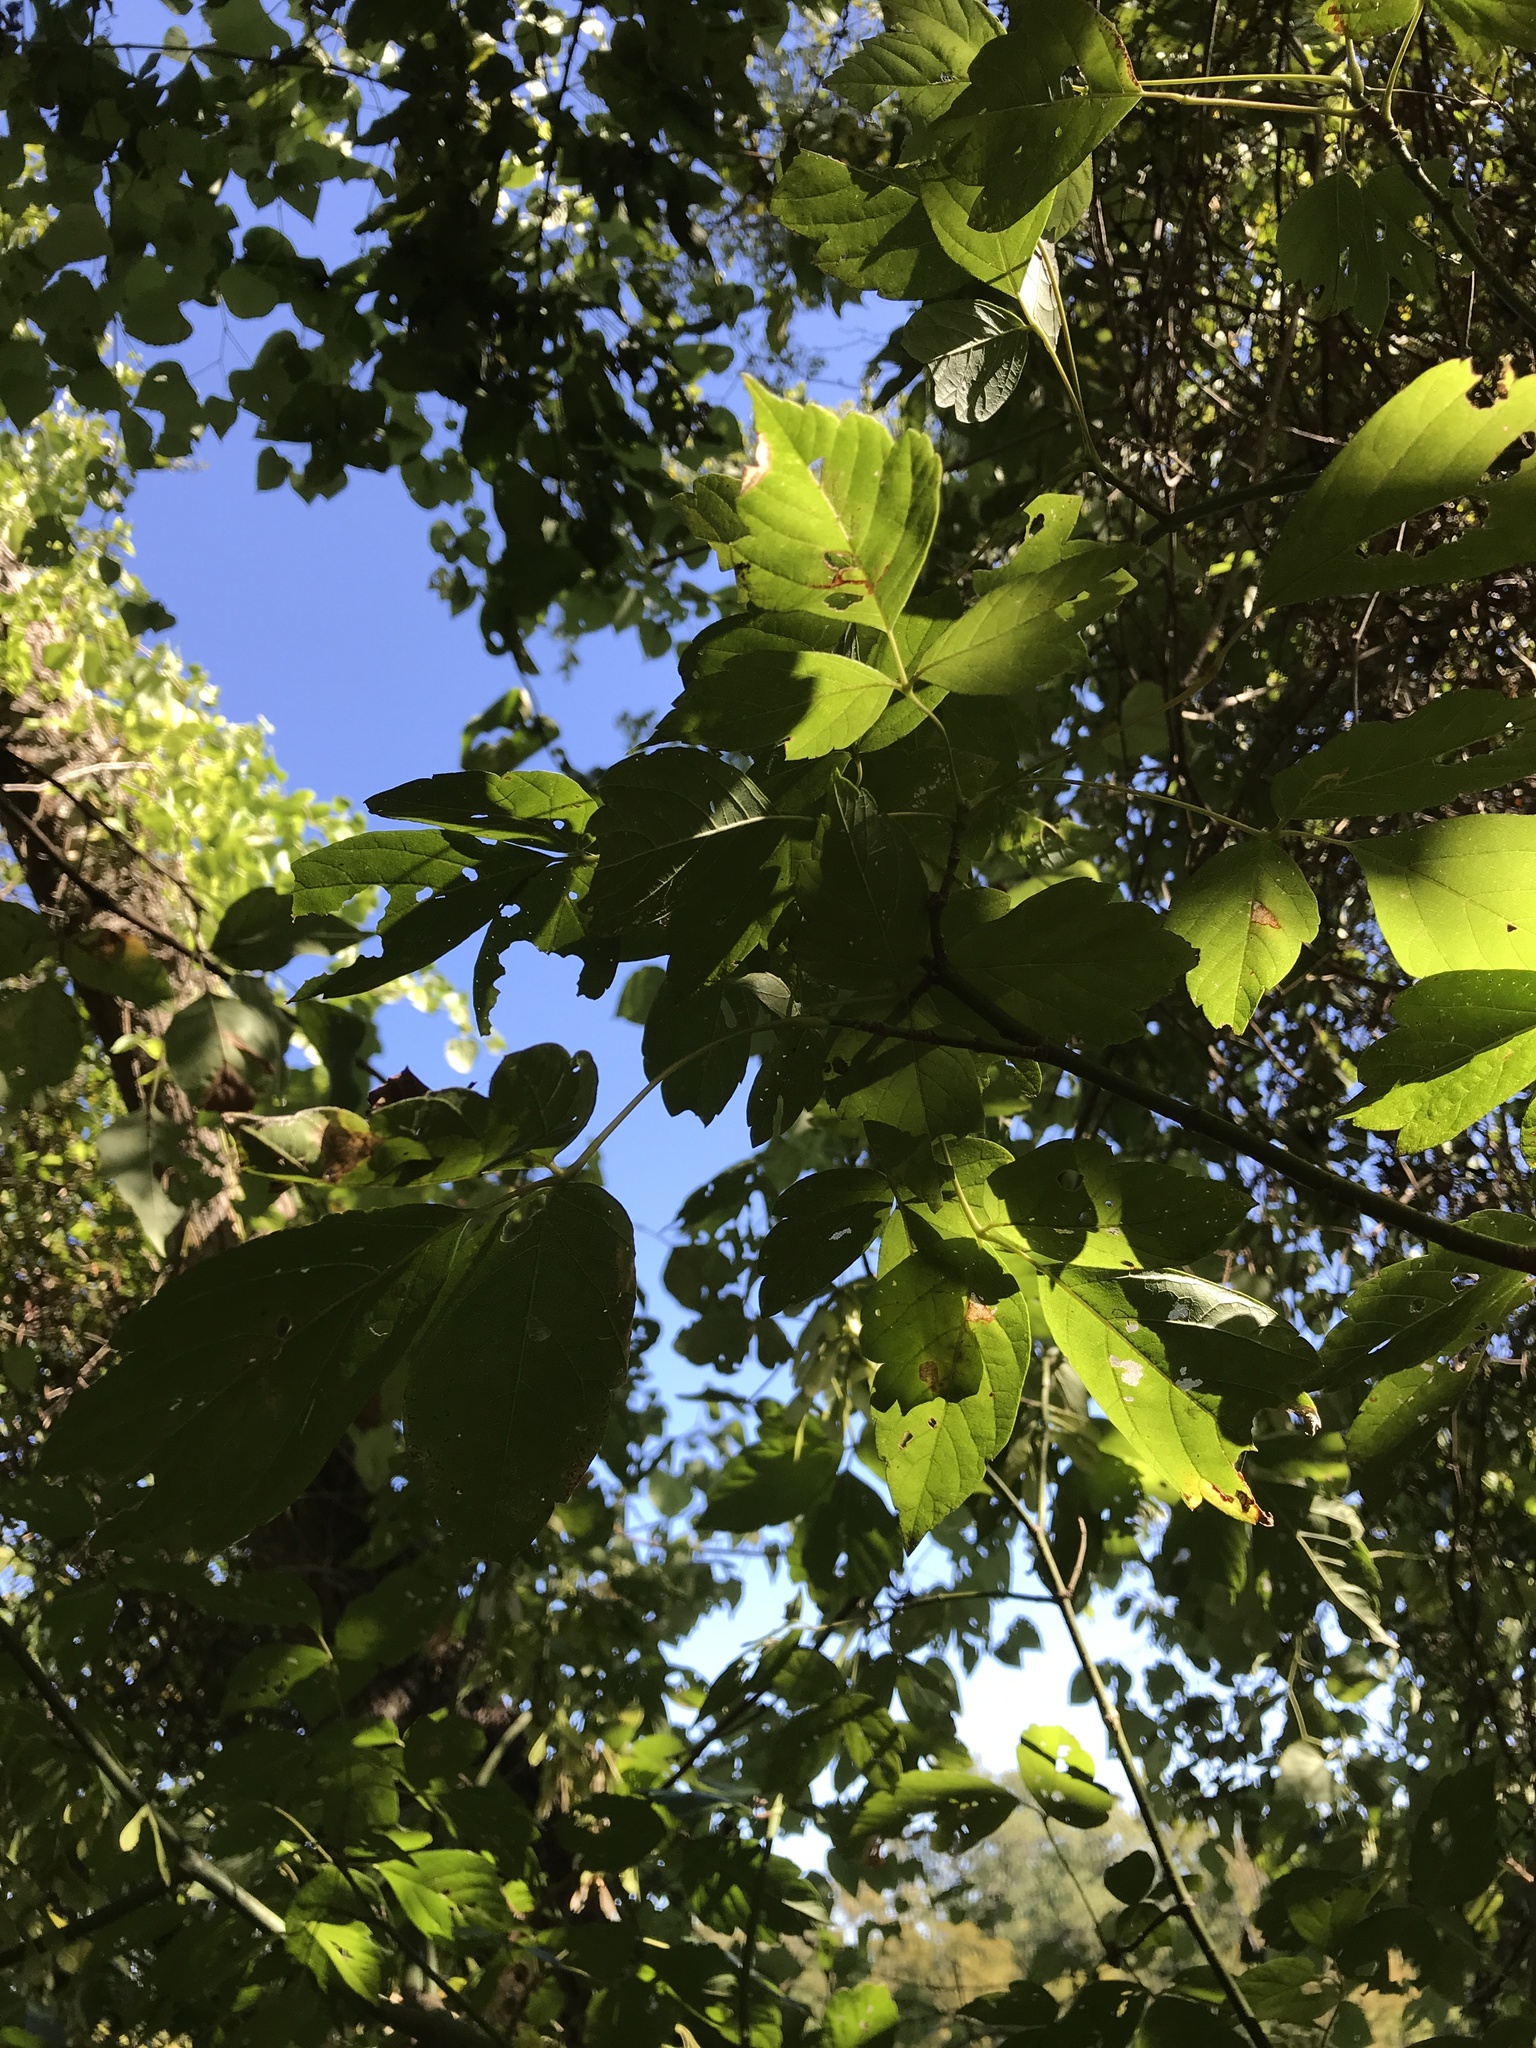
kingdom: Plantae
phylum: Tracheophyta
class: Magnoliopsida
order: Sapindales
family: Sapindaceae
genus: Acer
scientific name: Acer negundo
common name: Ashleaf maple
